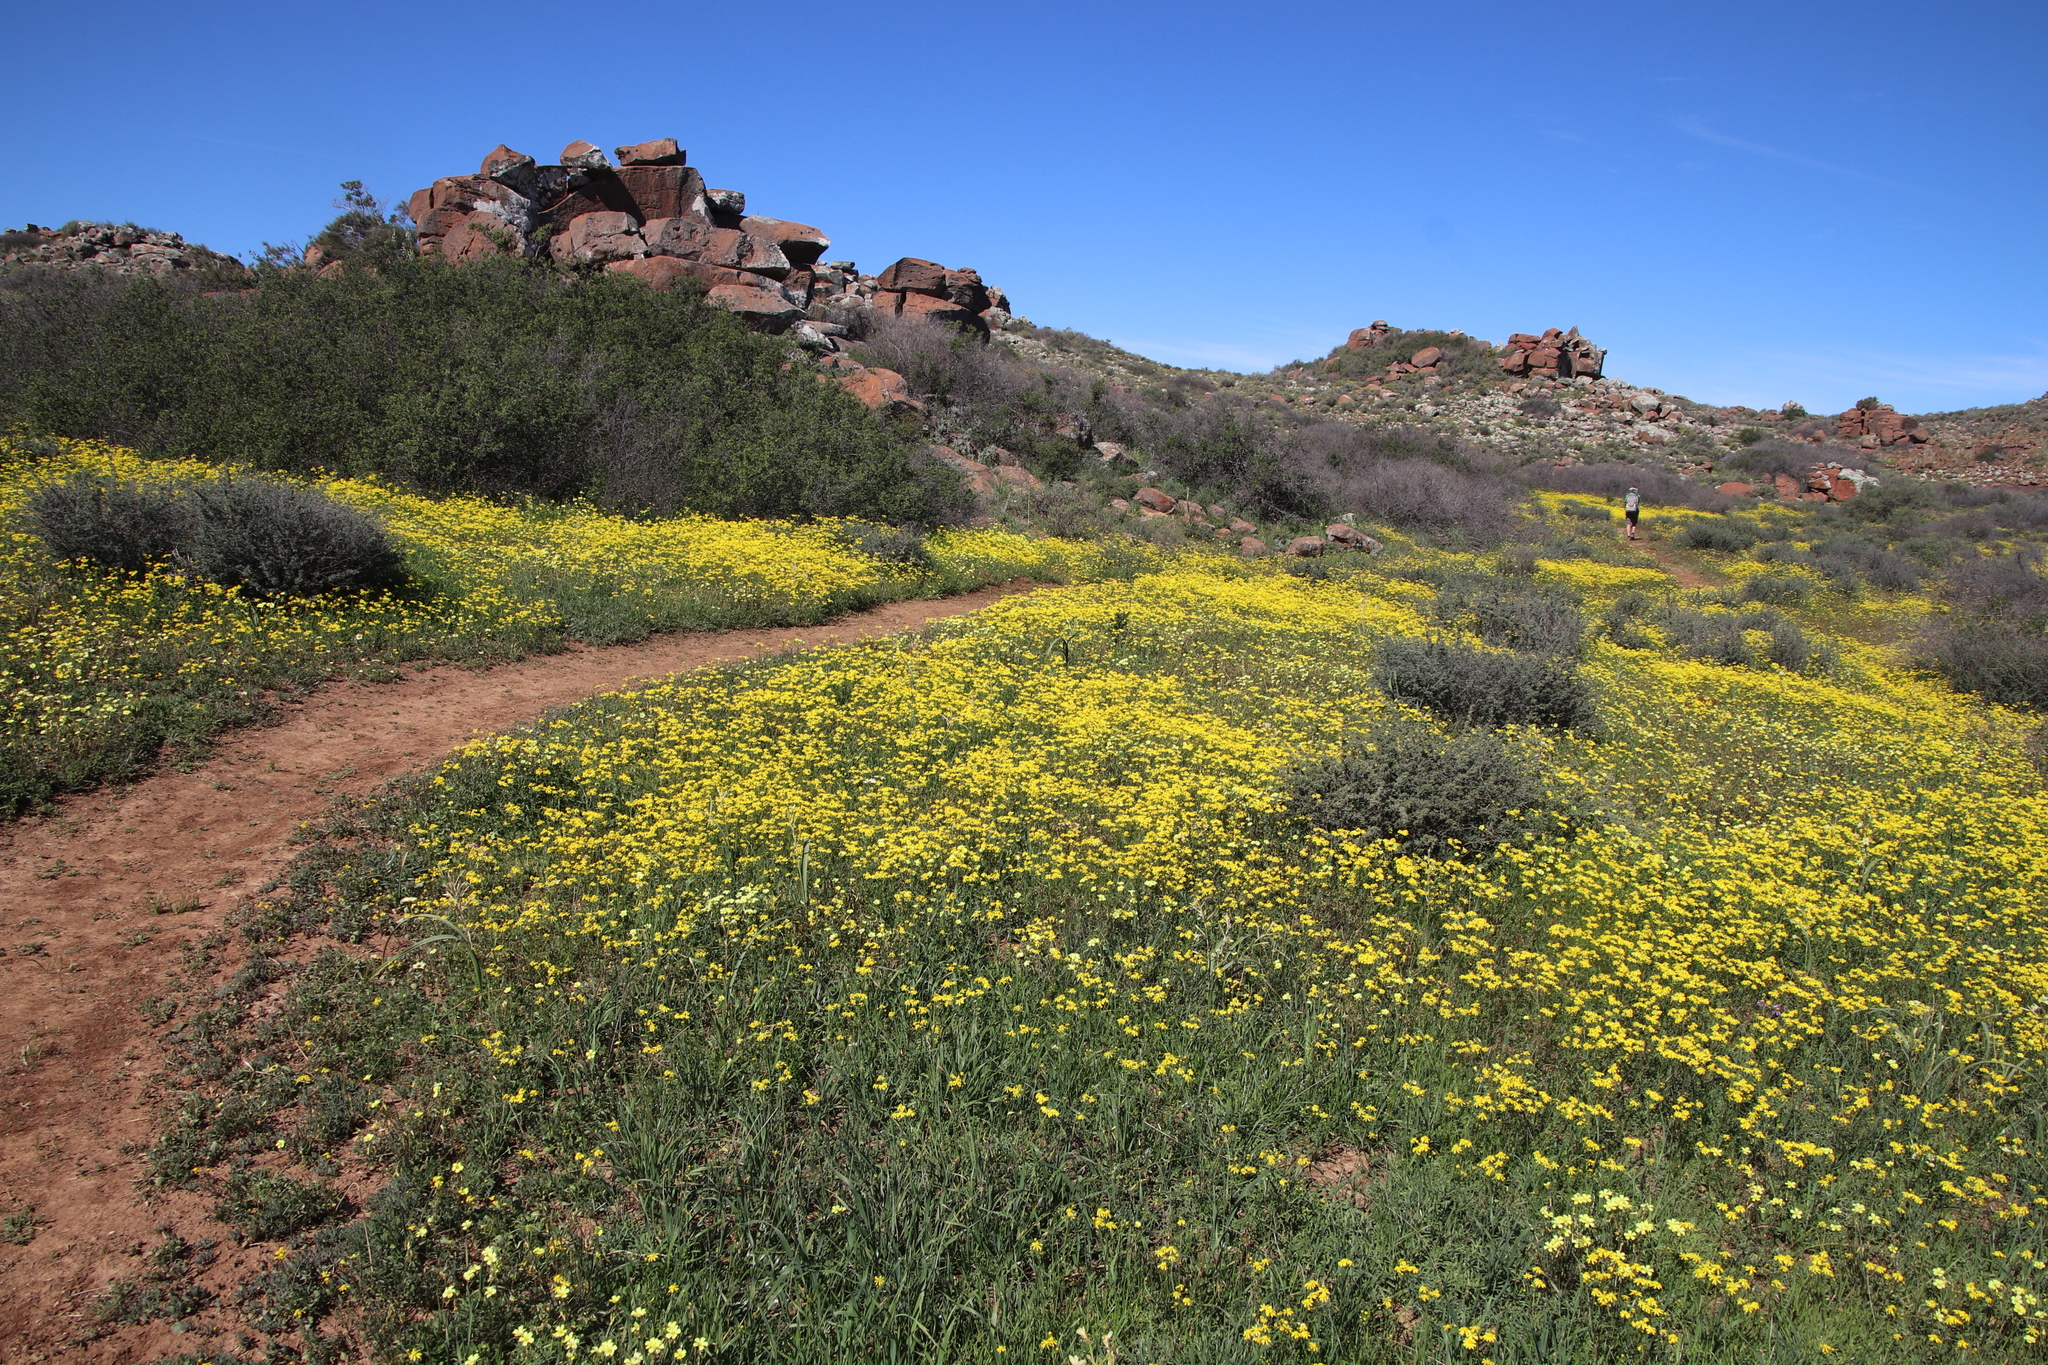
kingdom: Plantae
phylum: Tracheophyta
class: Magnoliopsida
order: Oxalidales
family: Oxalidaceae
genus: Oxalis
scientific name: Oxalis pes-caprae
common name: Bermuda-buttercup
